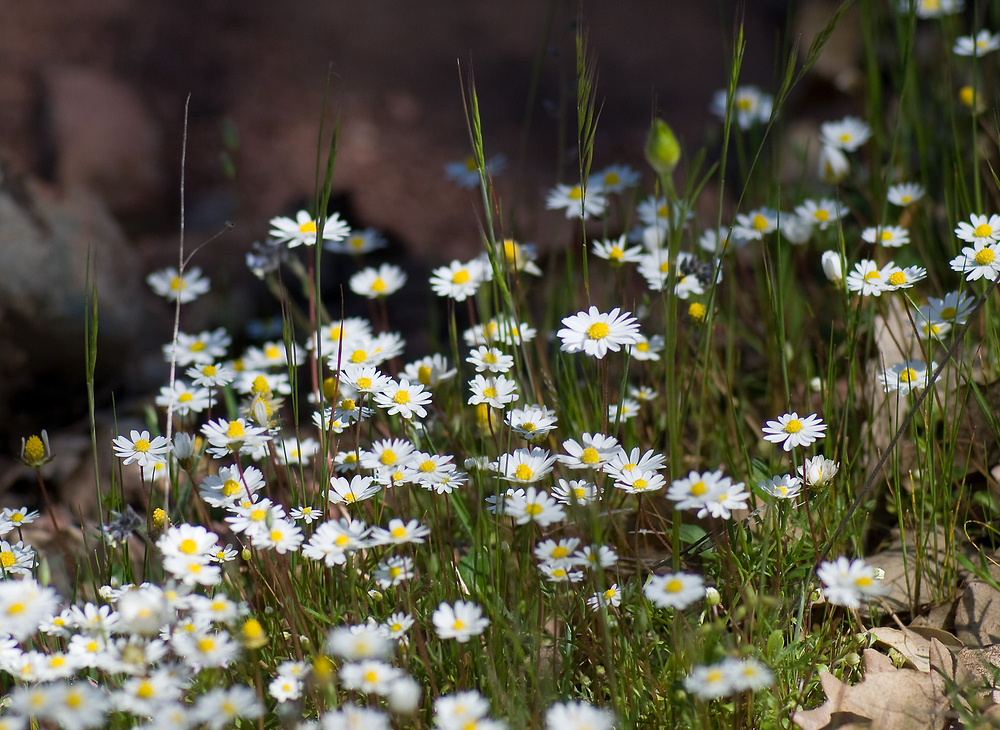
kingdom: Plantae
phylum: Tracheophyta
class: Magnoliopsida
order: Asterales
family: Asteraceae
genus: Bellis
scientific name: Bellis annua
